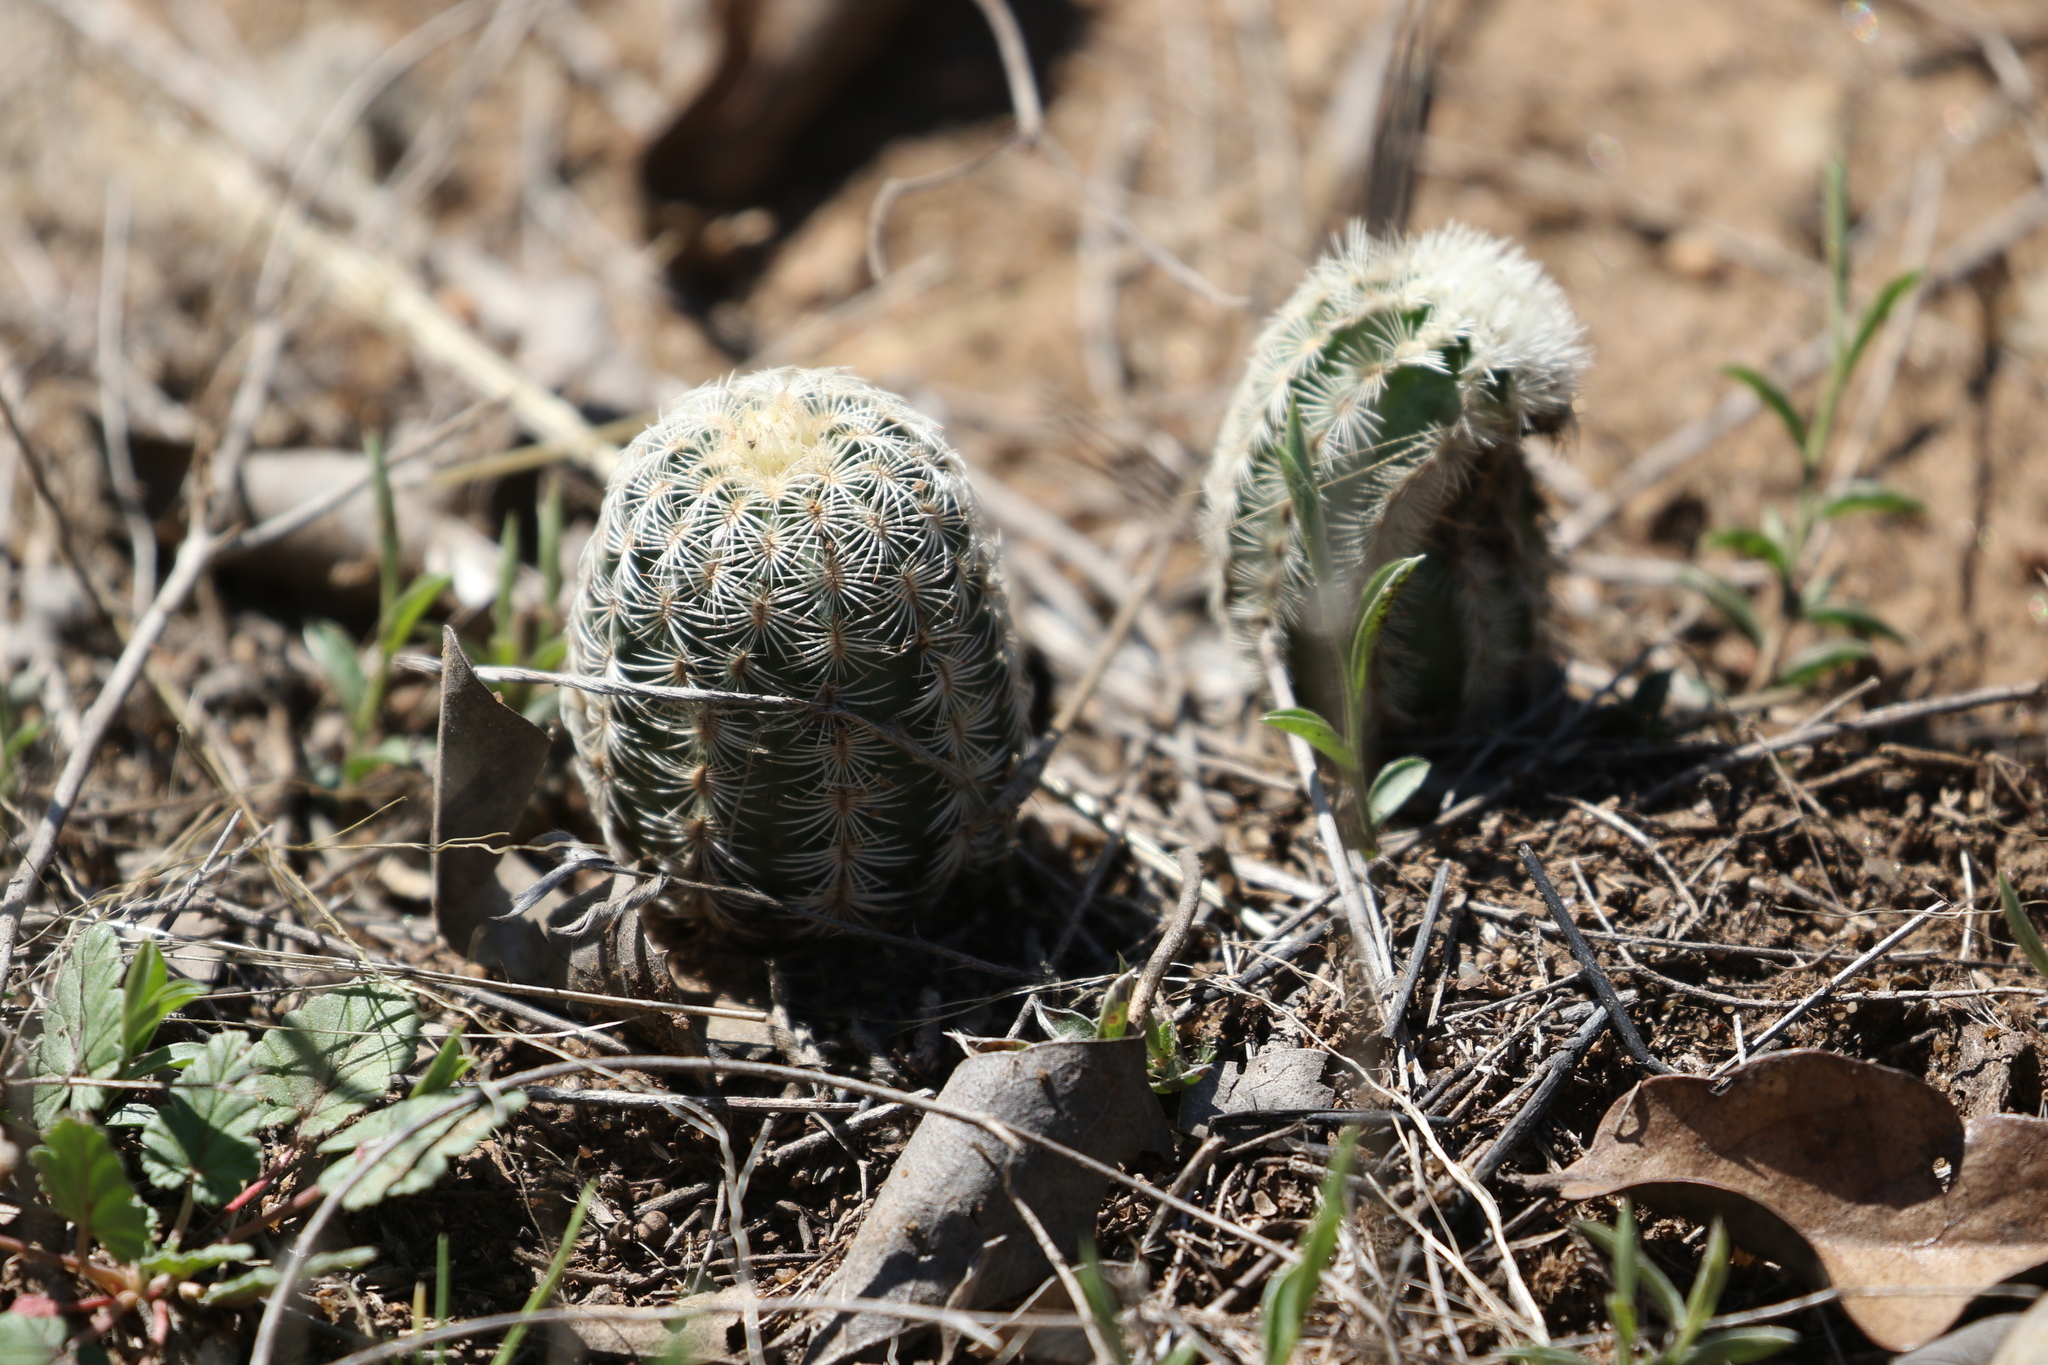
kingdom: Plantae
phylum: Tracheophyta
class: Magnoliopsida
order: Caryophyllales
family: Cactaceae
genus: Echinocereus
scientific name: Echinocereus reichenbachii
